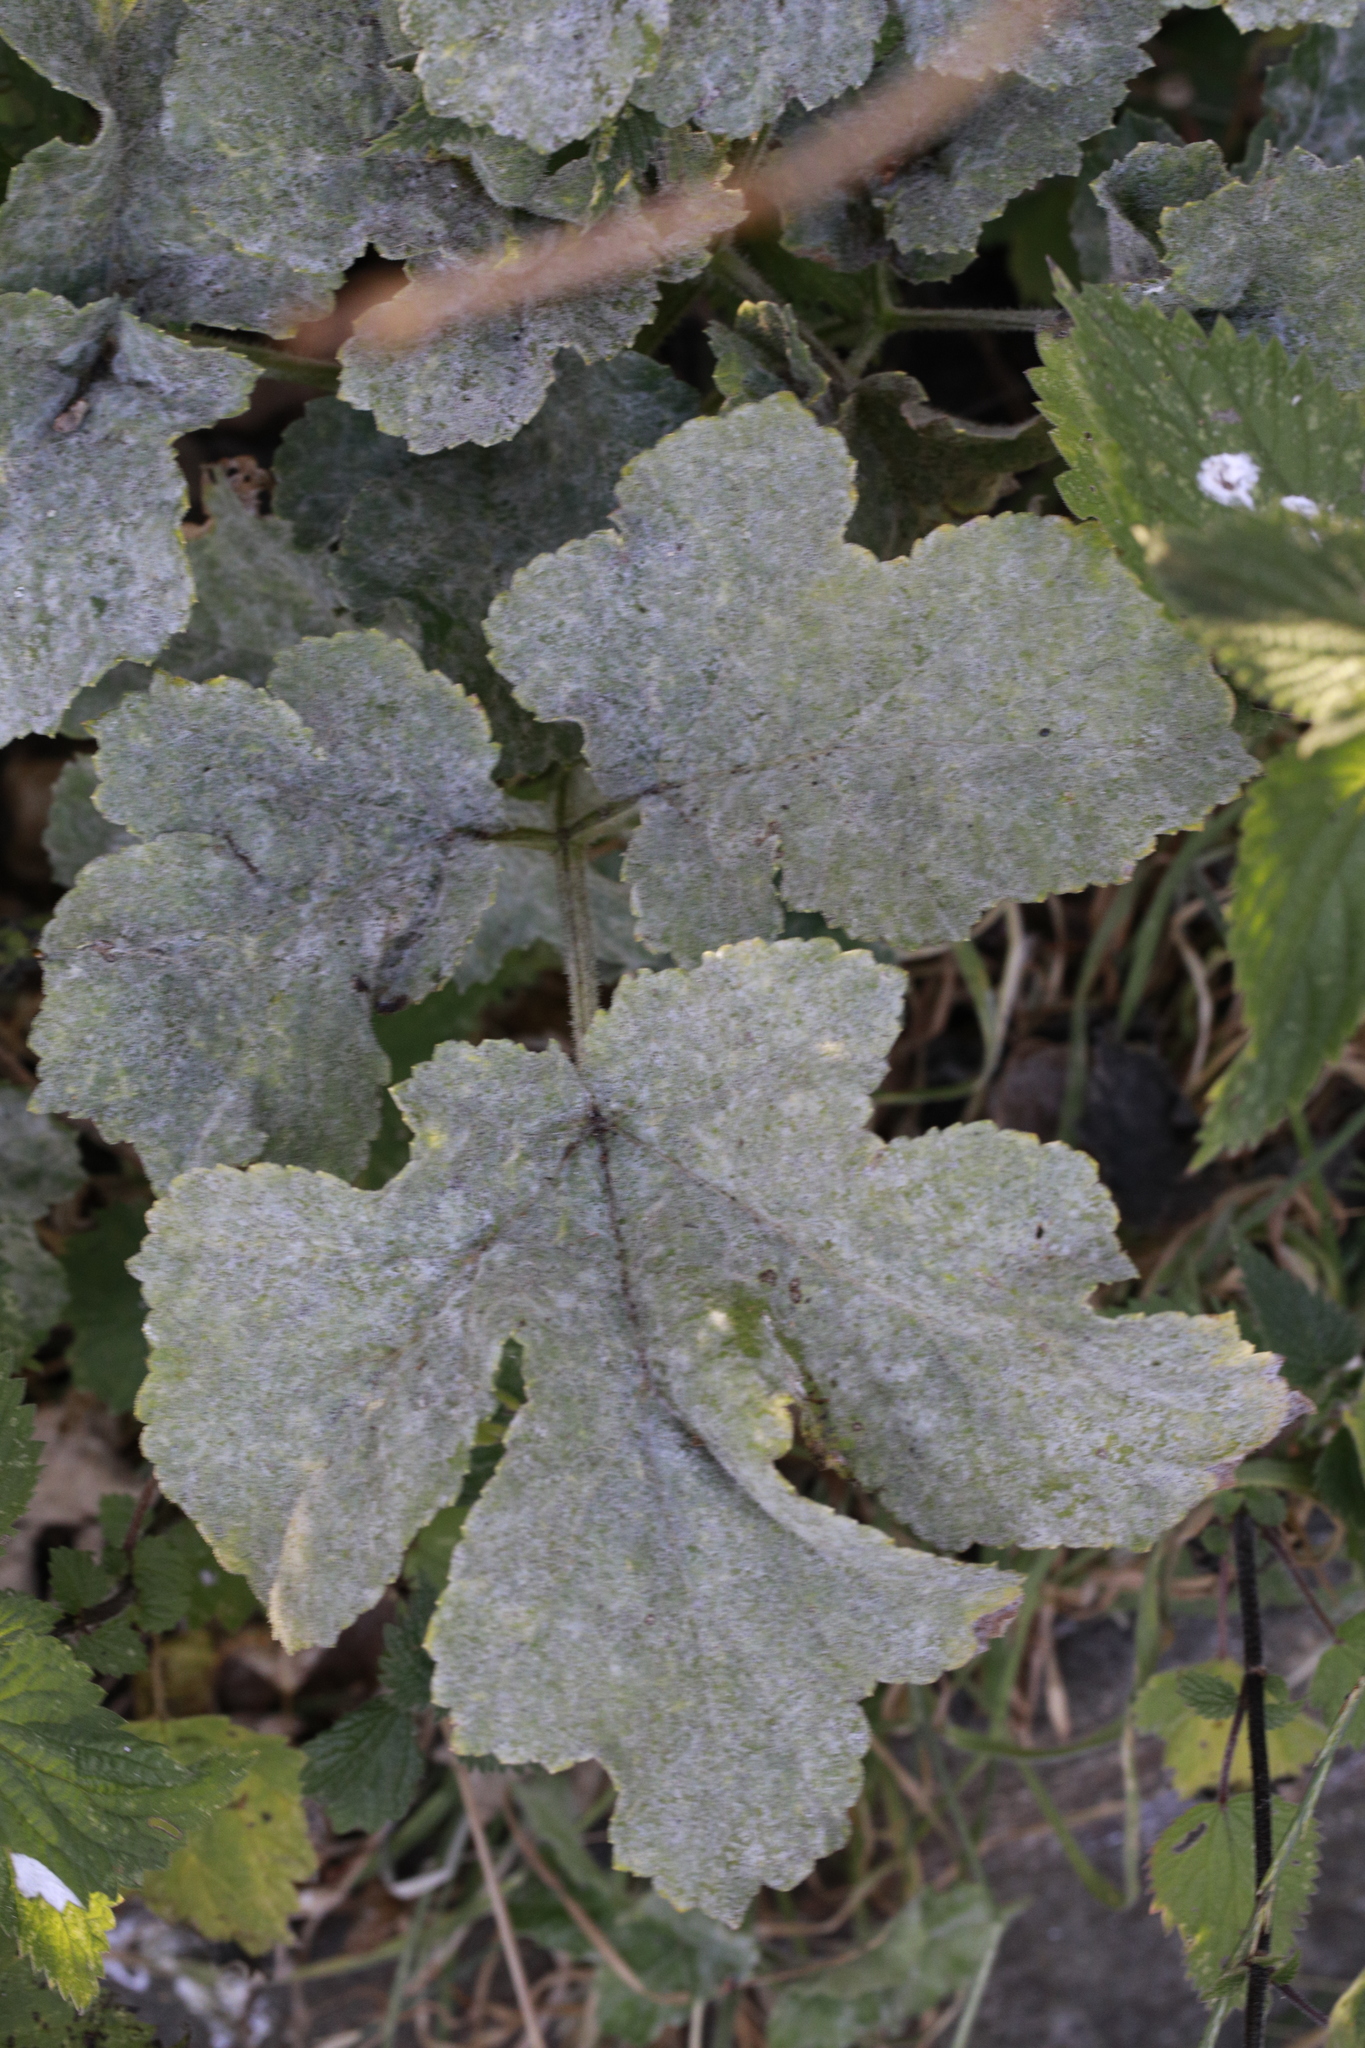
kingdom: Fungi
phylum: Ascomycota
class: Leotiomycetes
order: Helotiales
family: Erysiphaceae
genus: Erysiphe
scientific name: Erysiphe heraclei
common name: Umbellifer mildew
